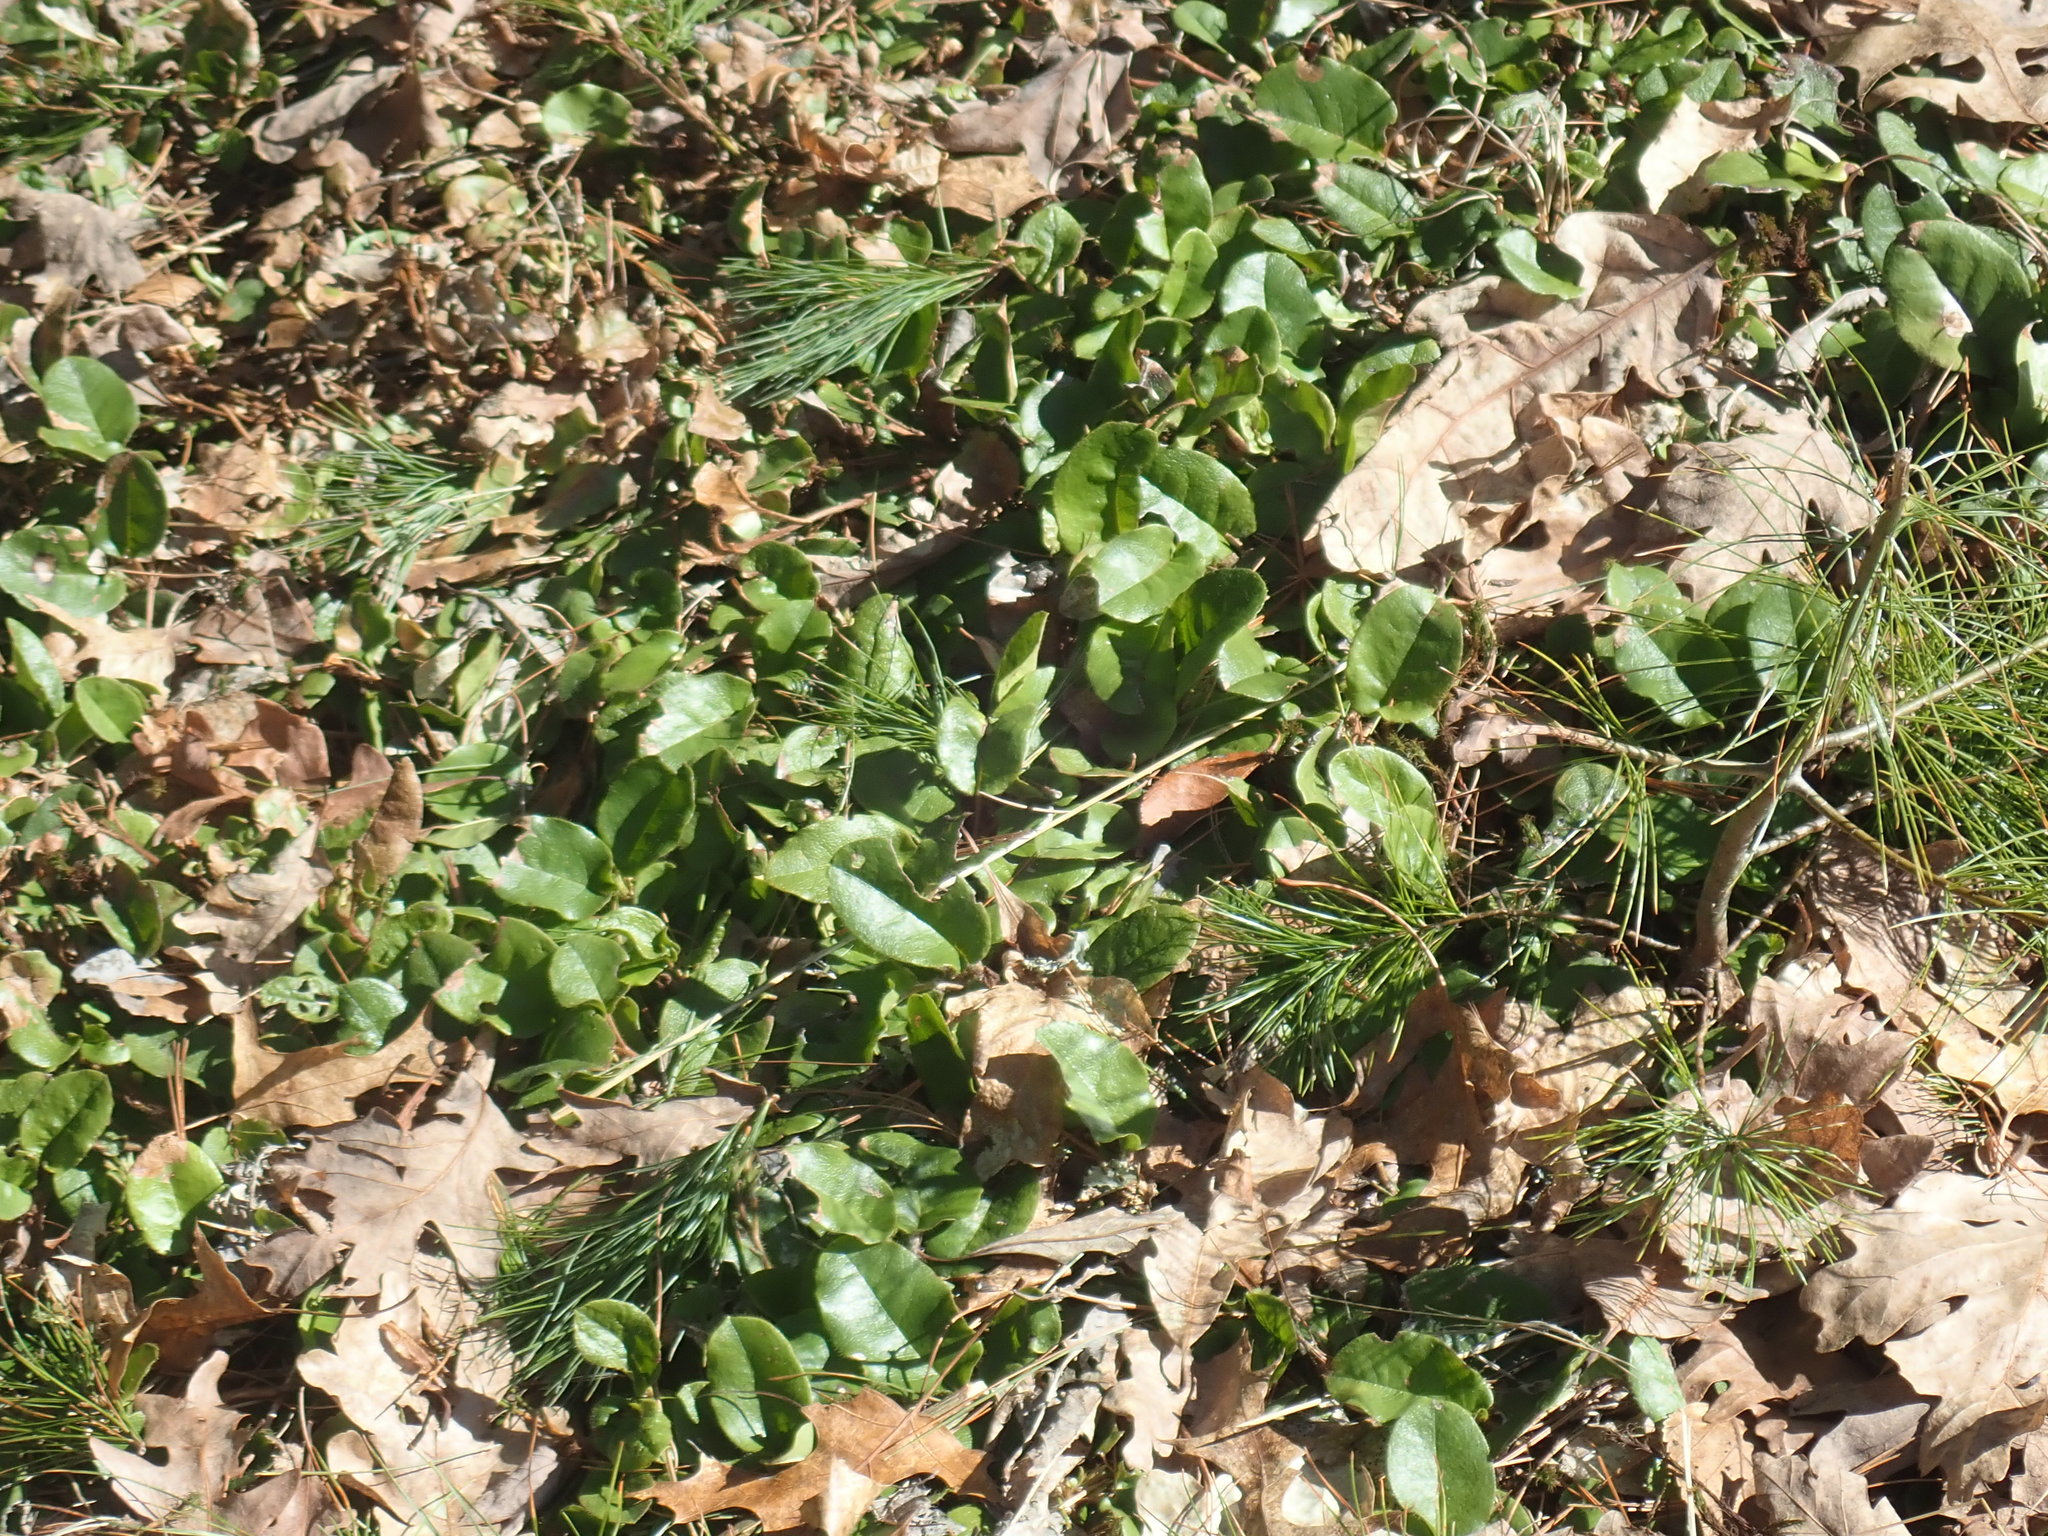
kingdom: Plantae
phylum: Tracheophyta
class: Magnoliopsida
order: Ericales
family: Ericaceae
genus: Epigaea
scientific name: Epigaea repens
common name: Gravelroot
